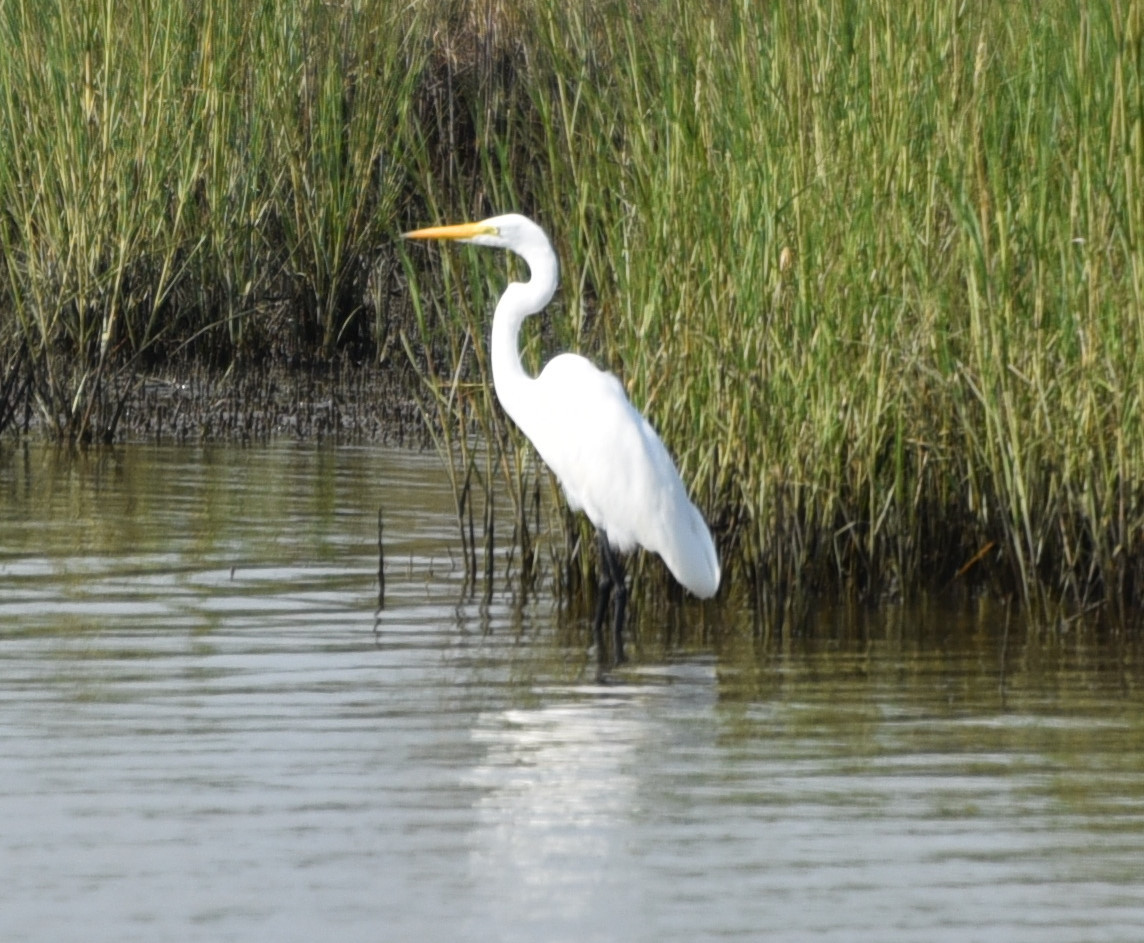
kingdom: Animalia
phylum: Chordata
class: Aves
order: Pelecaniformes
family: Ardeidae
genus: Ardea
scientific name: Ardea alba
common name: Great egret
